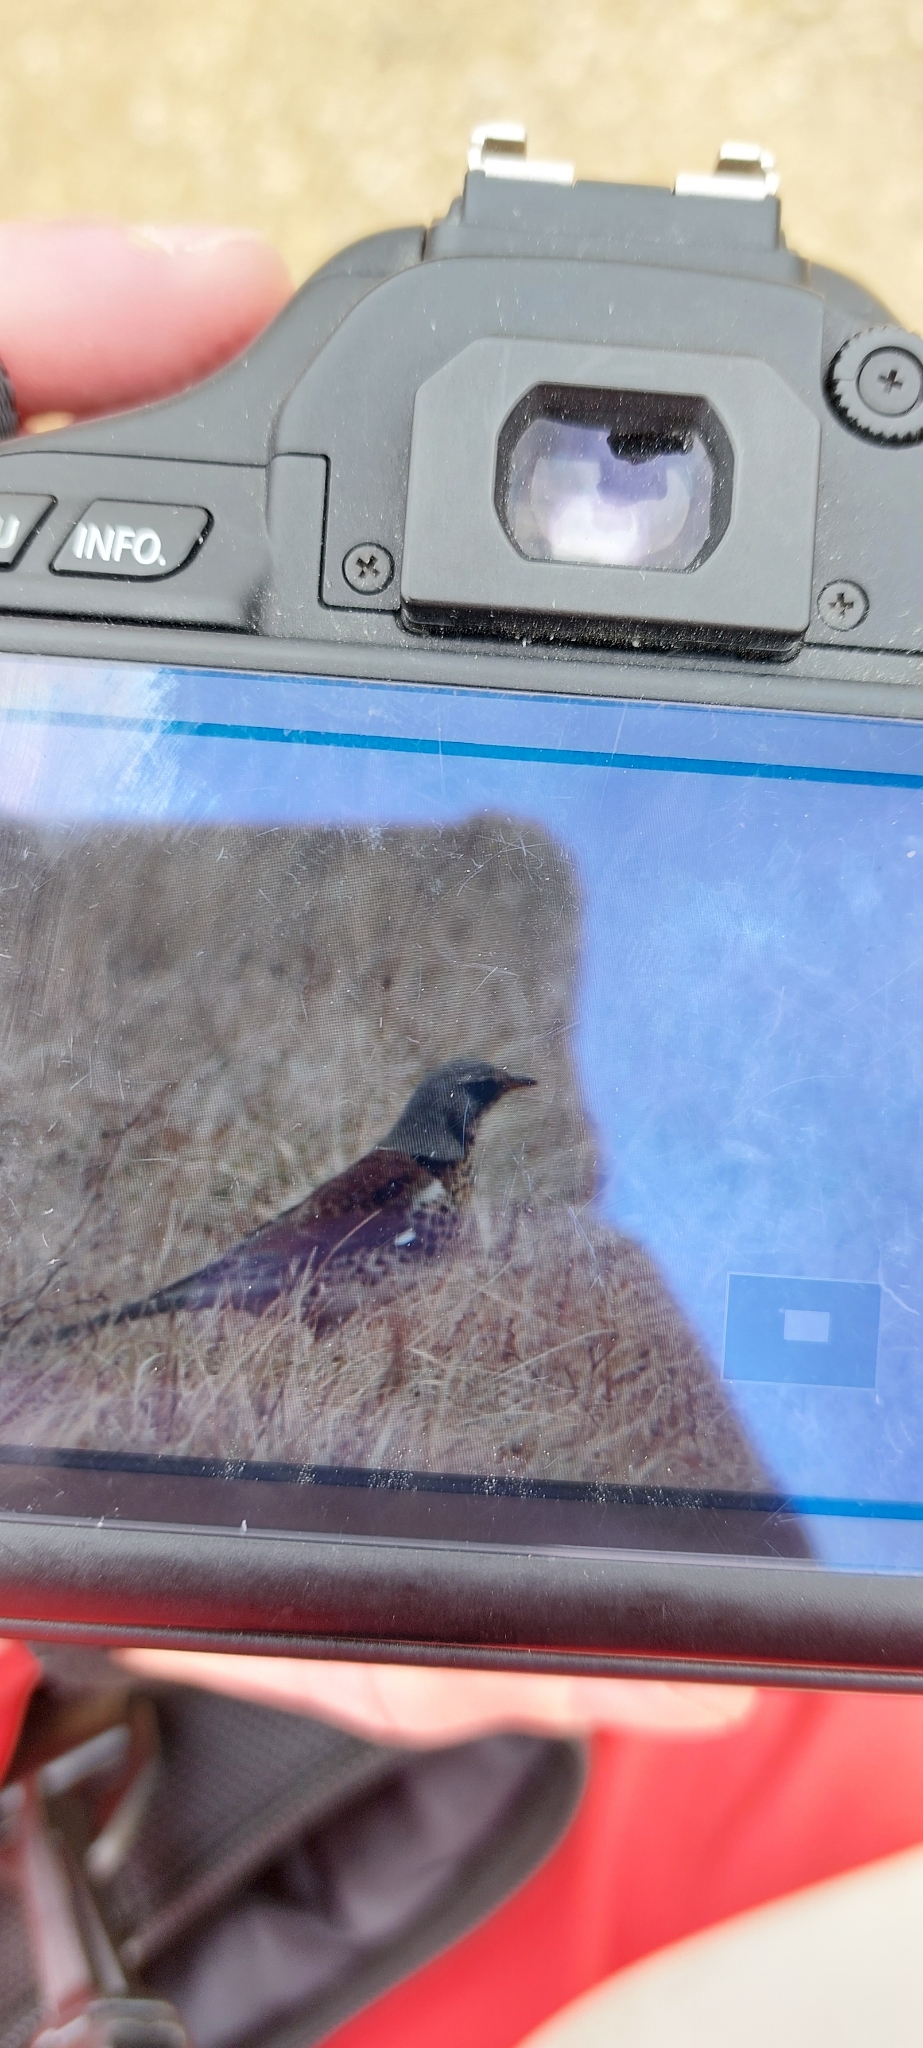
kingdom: Animalia
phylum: Chordata
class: Aves
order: Passeriformes
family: Turdidae
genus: Turdus
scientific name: Turdus pilaris
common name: Fieldfare
